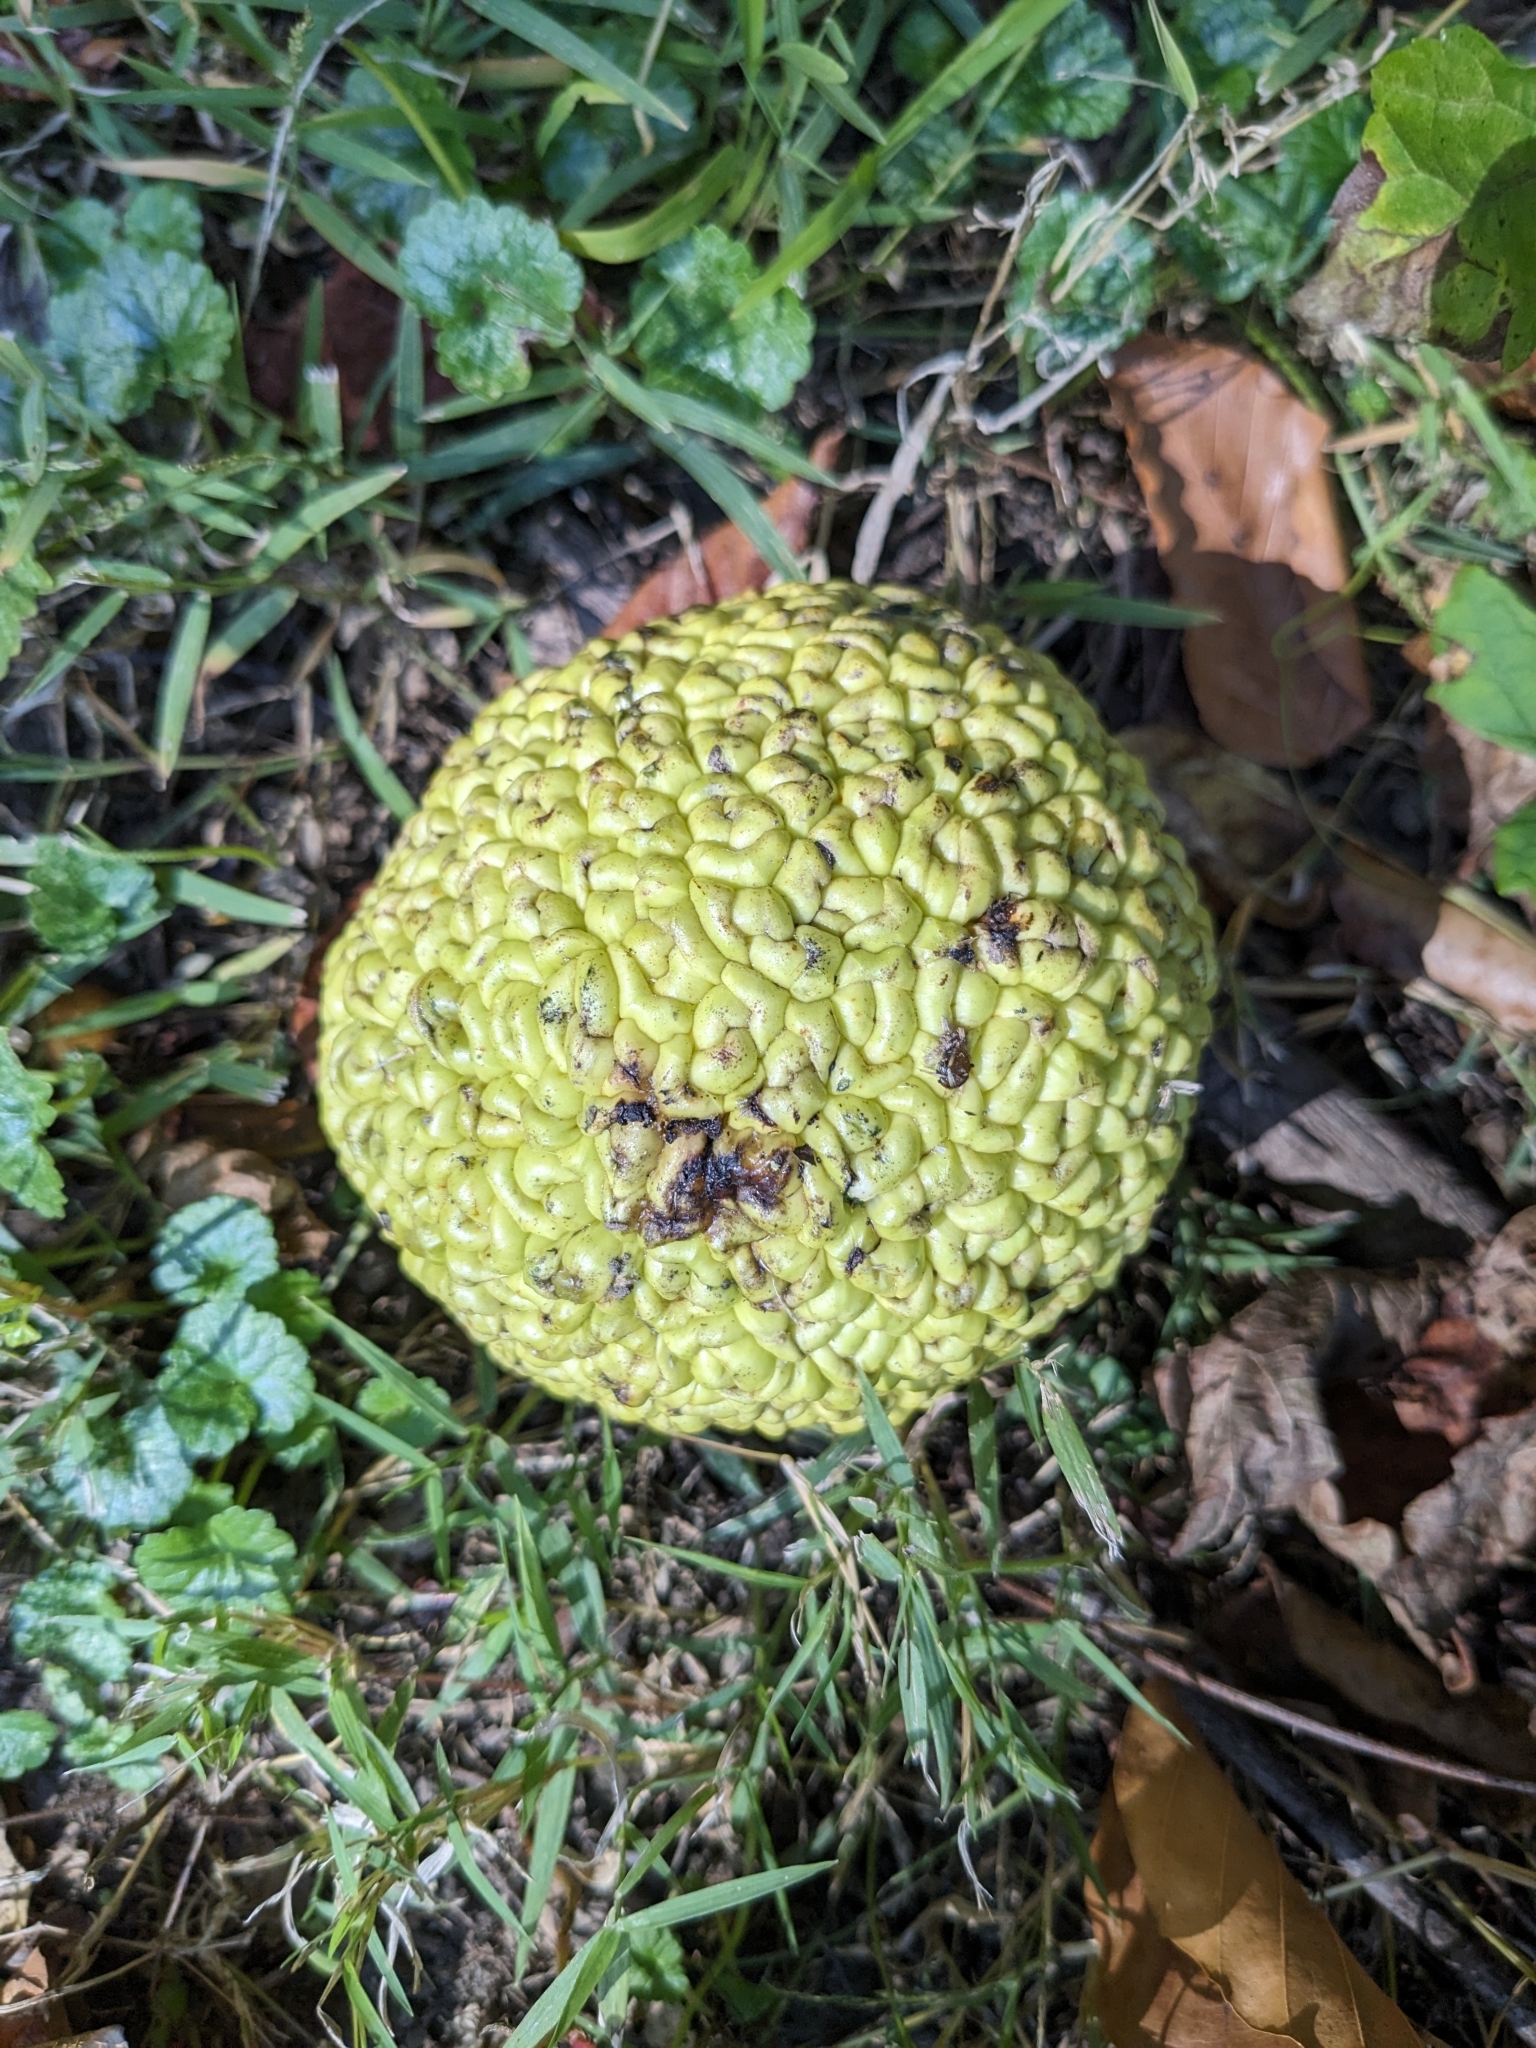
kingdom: Plantae
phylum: Tracheophyta
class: Magnoliopsida
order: Rosales
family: Moraceae
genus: Maclura
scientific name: Maclura pomifera
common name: Osage-orange
